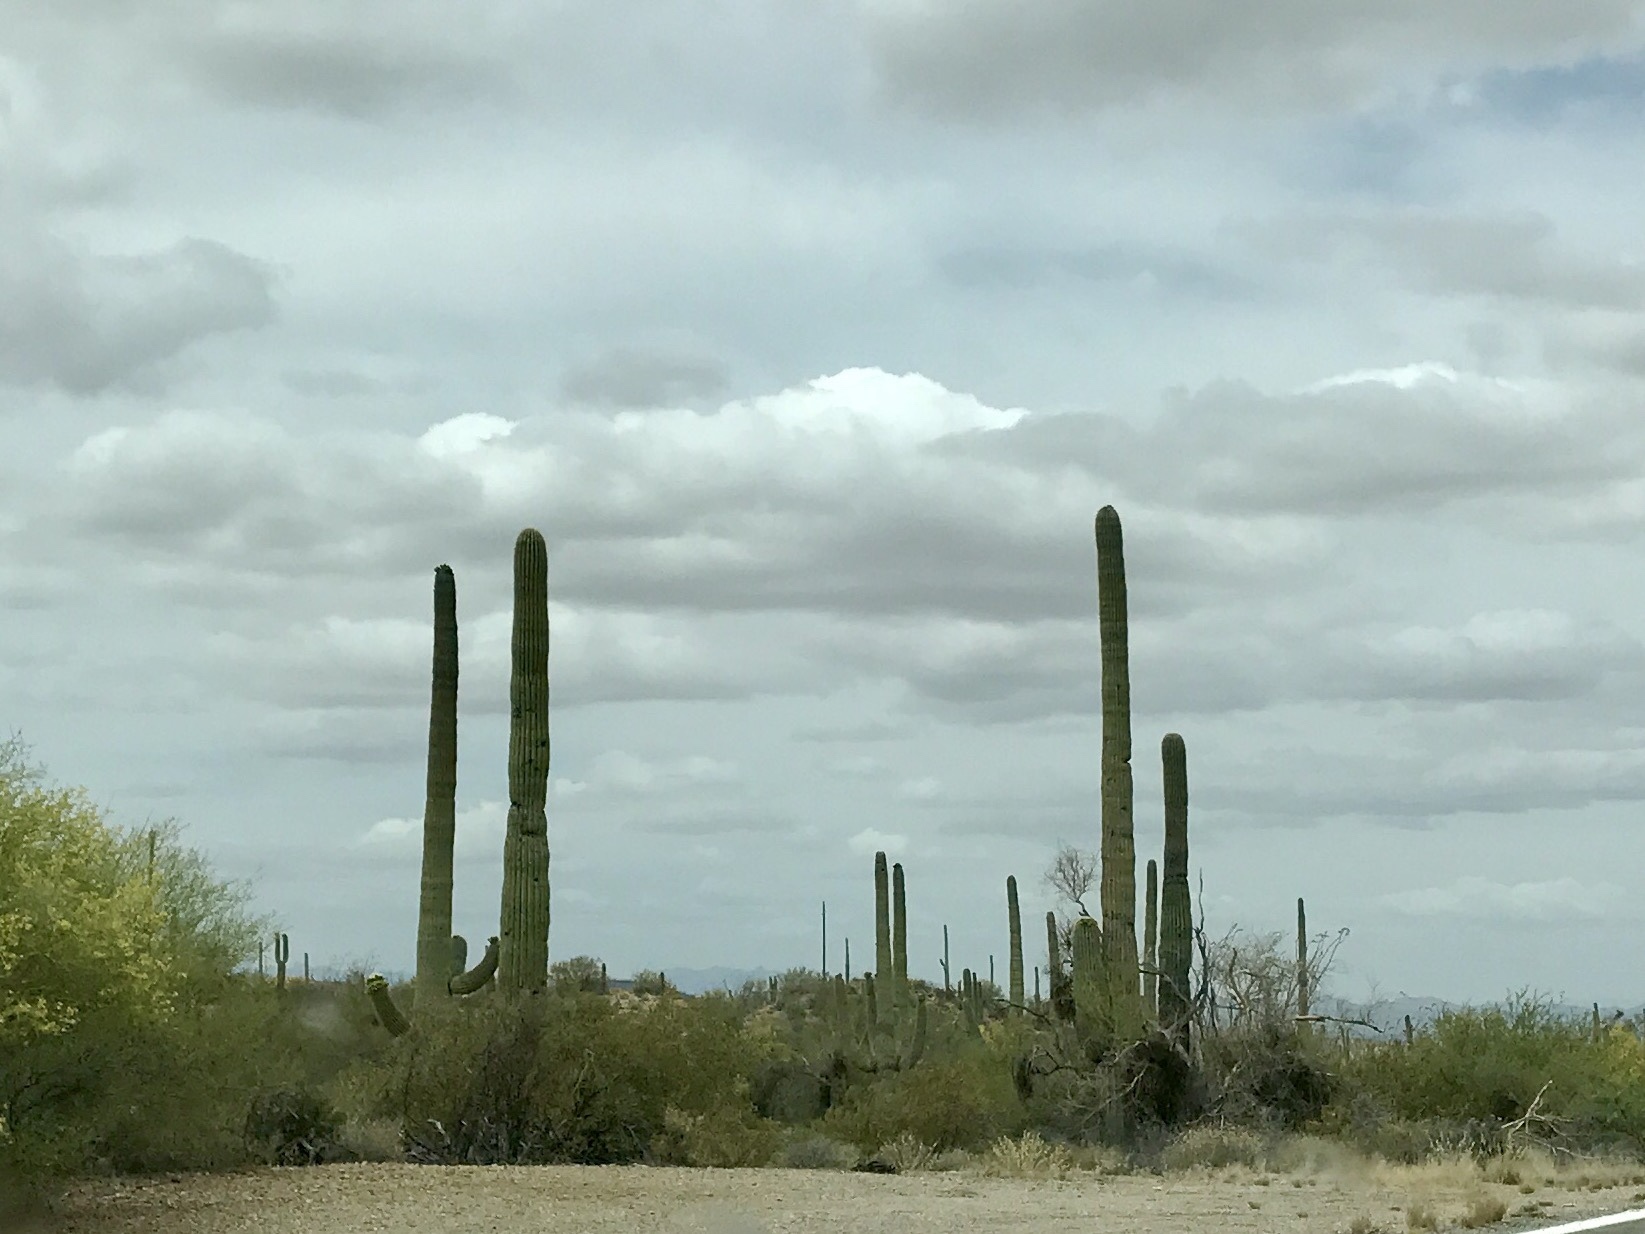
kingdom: Plantae
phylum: Tracheophyta
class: Magnoliopsida
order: Caryophyllales
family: Cactaceae
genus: Carnegiea
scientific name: Carnegiea gigantea
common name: Saguaro
